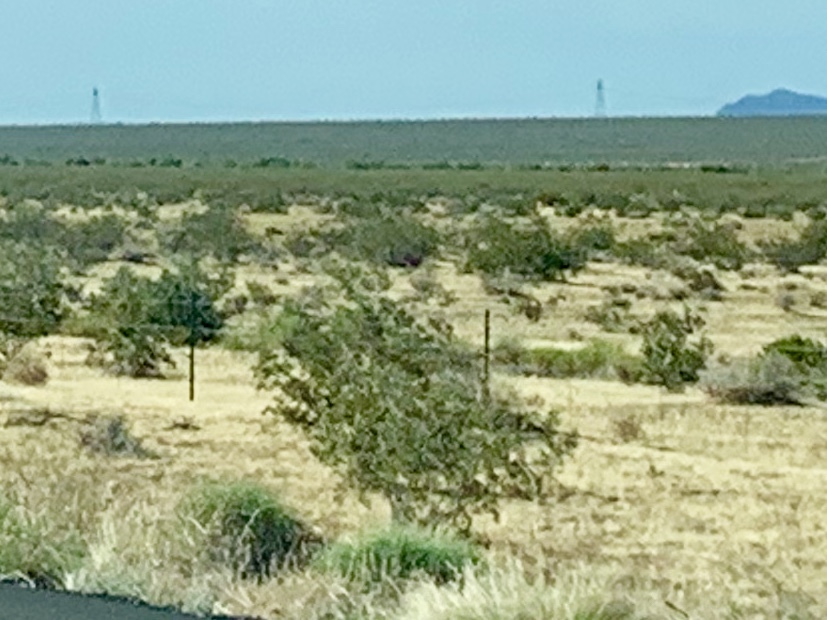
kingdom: Plantae
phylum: Tracheophyta
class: Magnoliopsida
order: Zygophyllales
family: Zygophyllaceae
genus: Larrea
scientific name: Larrea tridentata
